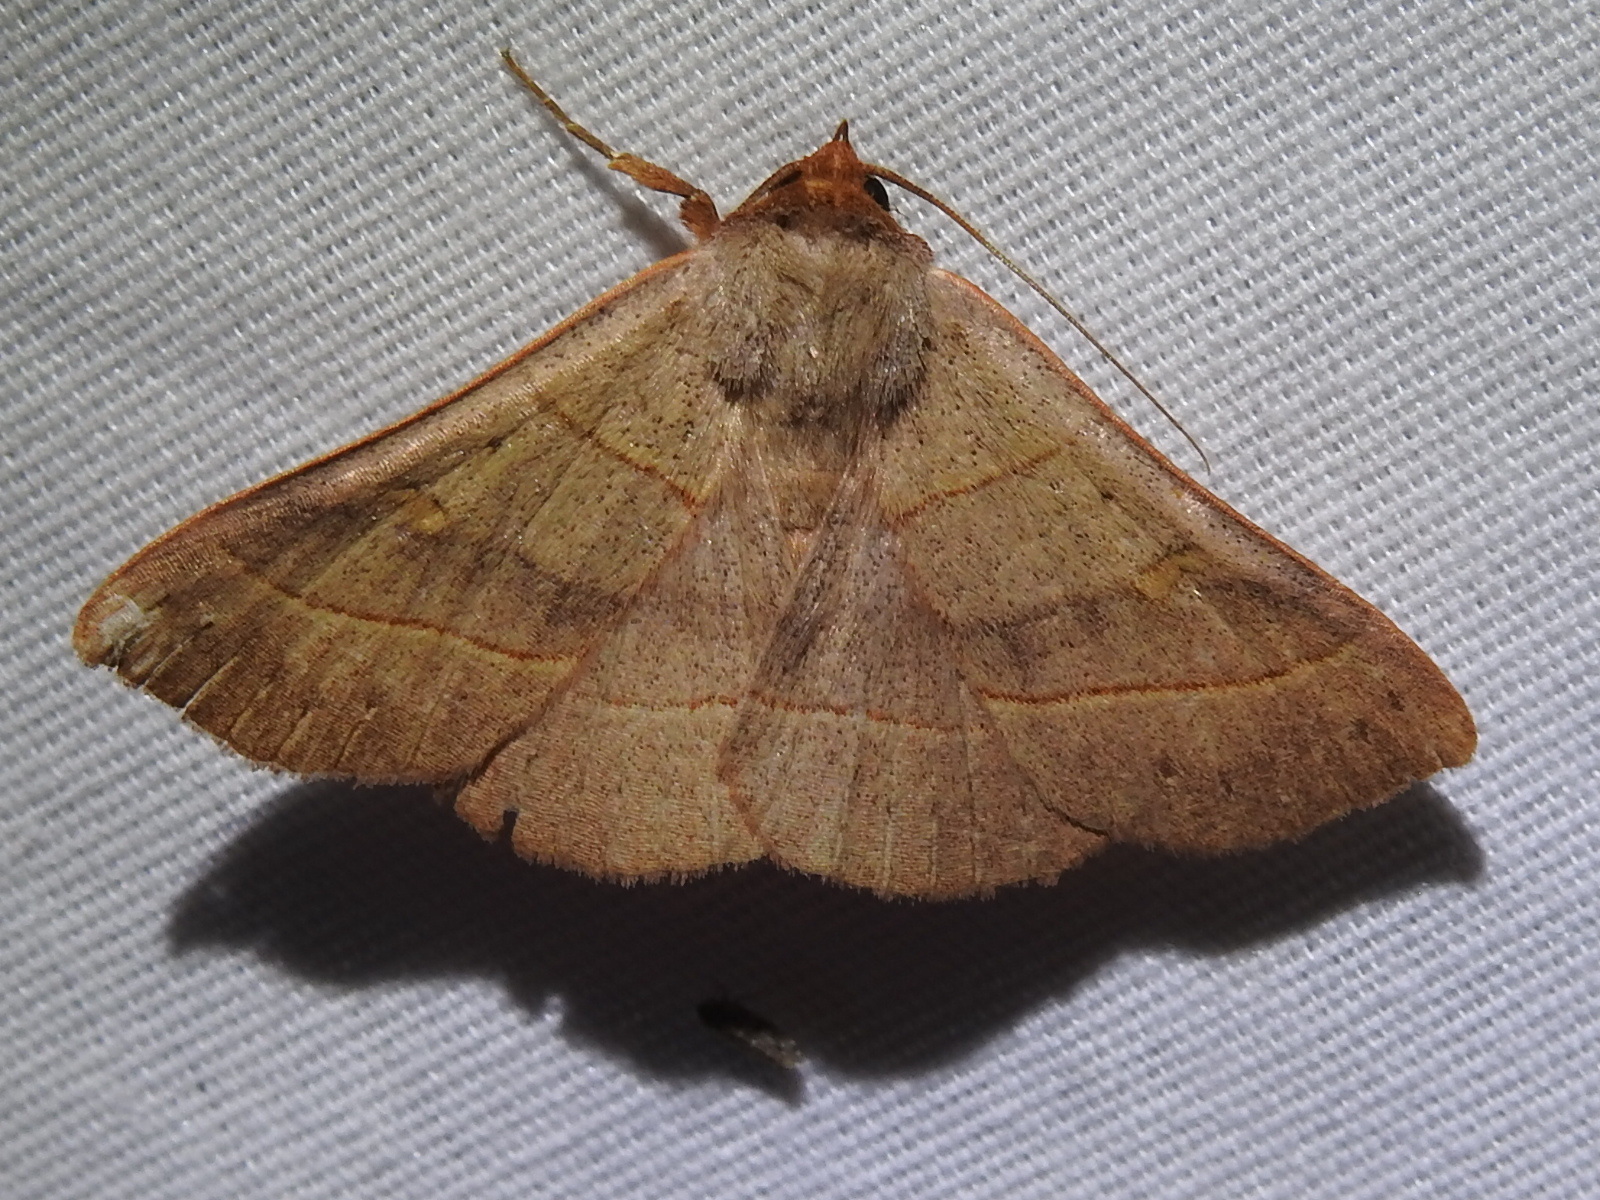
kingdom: Animalia
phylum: Arthropoda
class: Insecta
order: Lepidoptera
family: Erebidae
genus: Panopoda
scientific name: Panopoda rufimargo
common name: Red-lined panopoda moth
